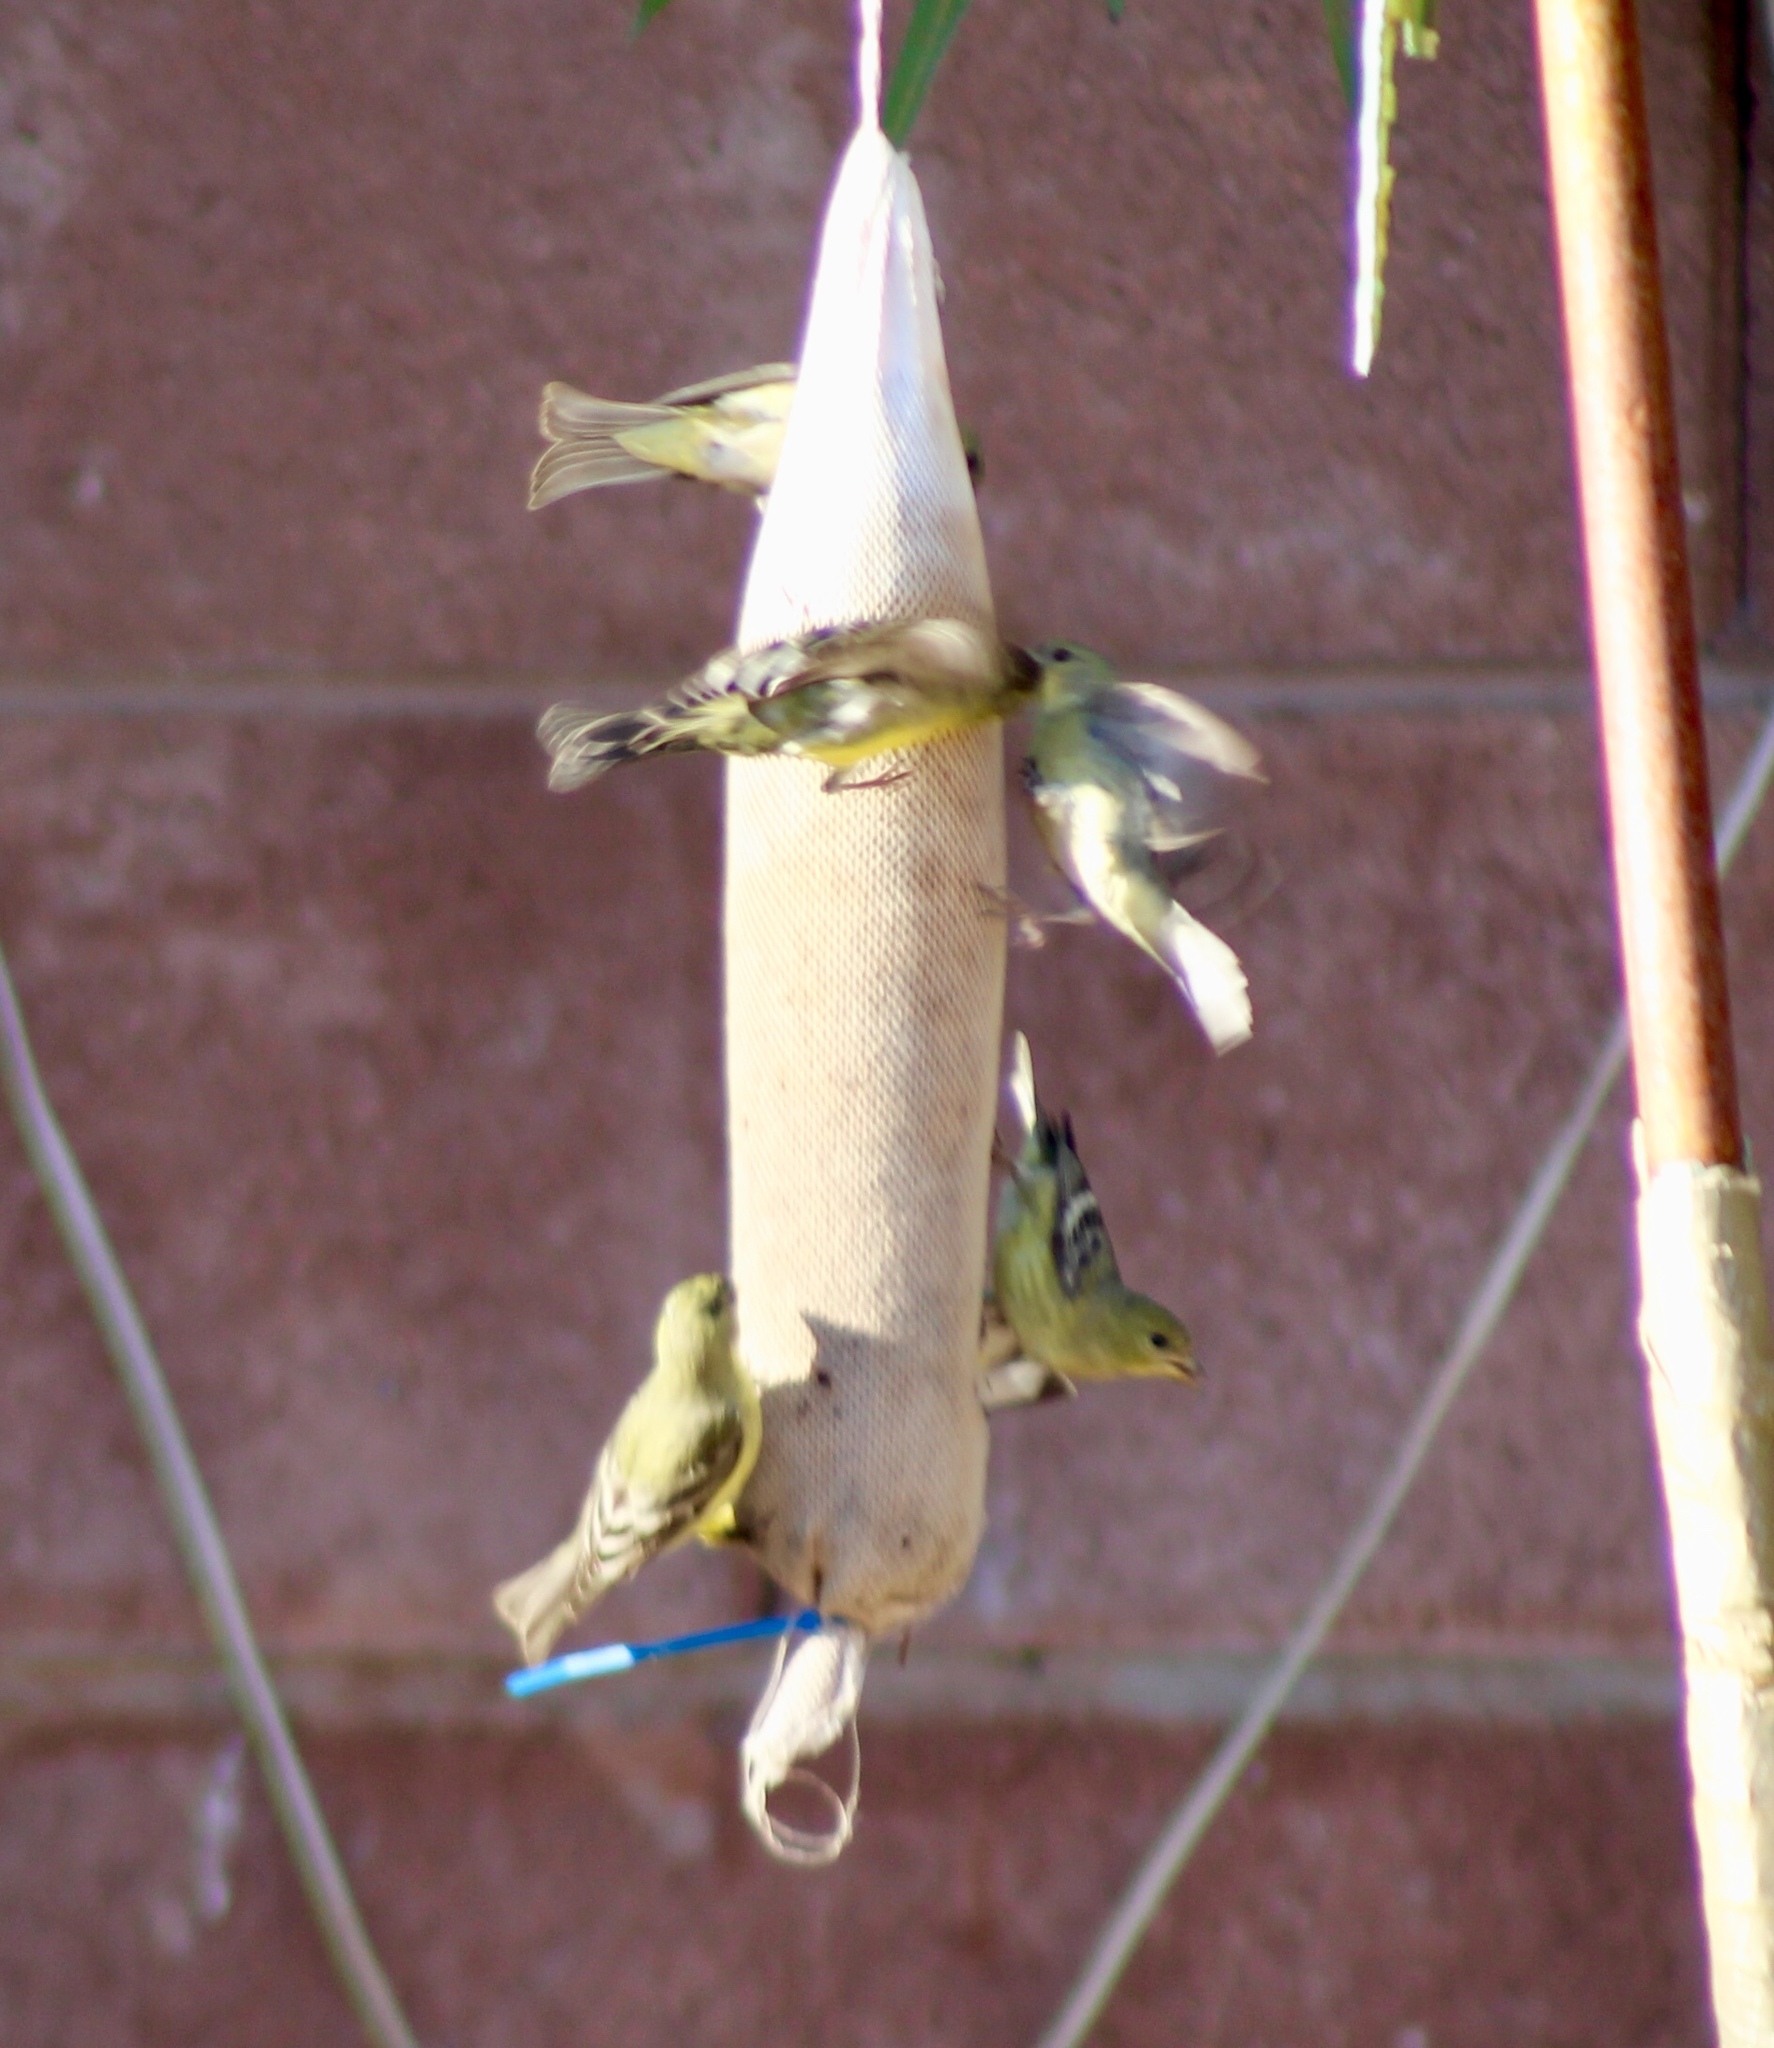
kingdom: Animalia
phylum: Chordata
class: Aves
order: Passeriformes
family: Fringillidae
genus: Spinus
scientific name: Spinus psaltria
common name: Lesser goldfinch
